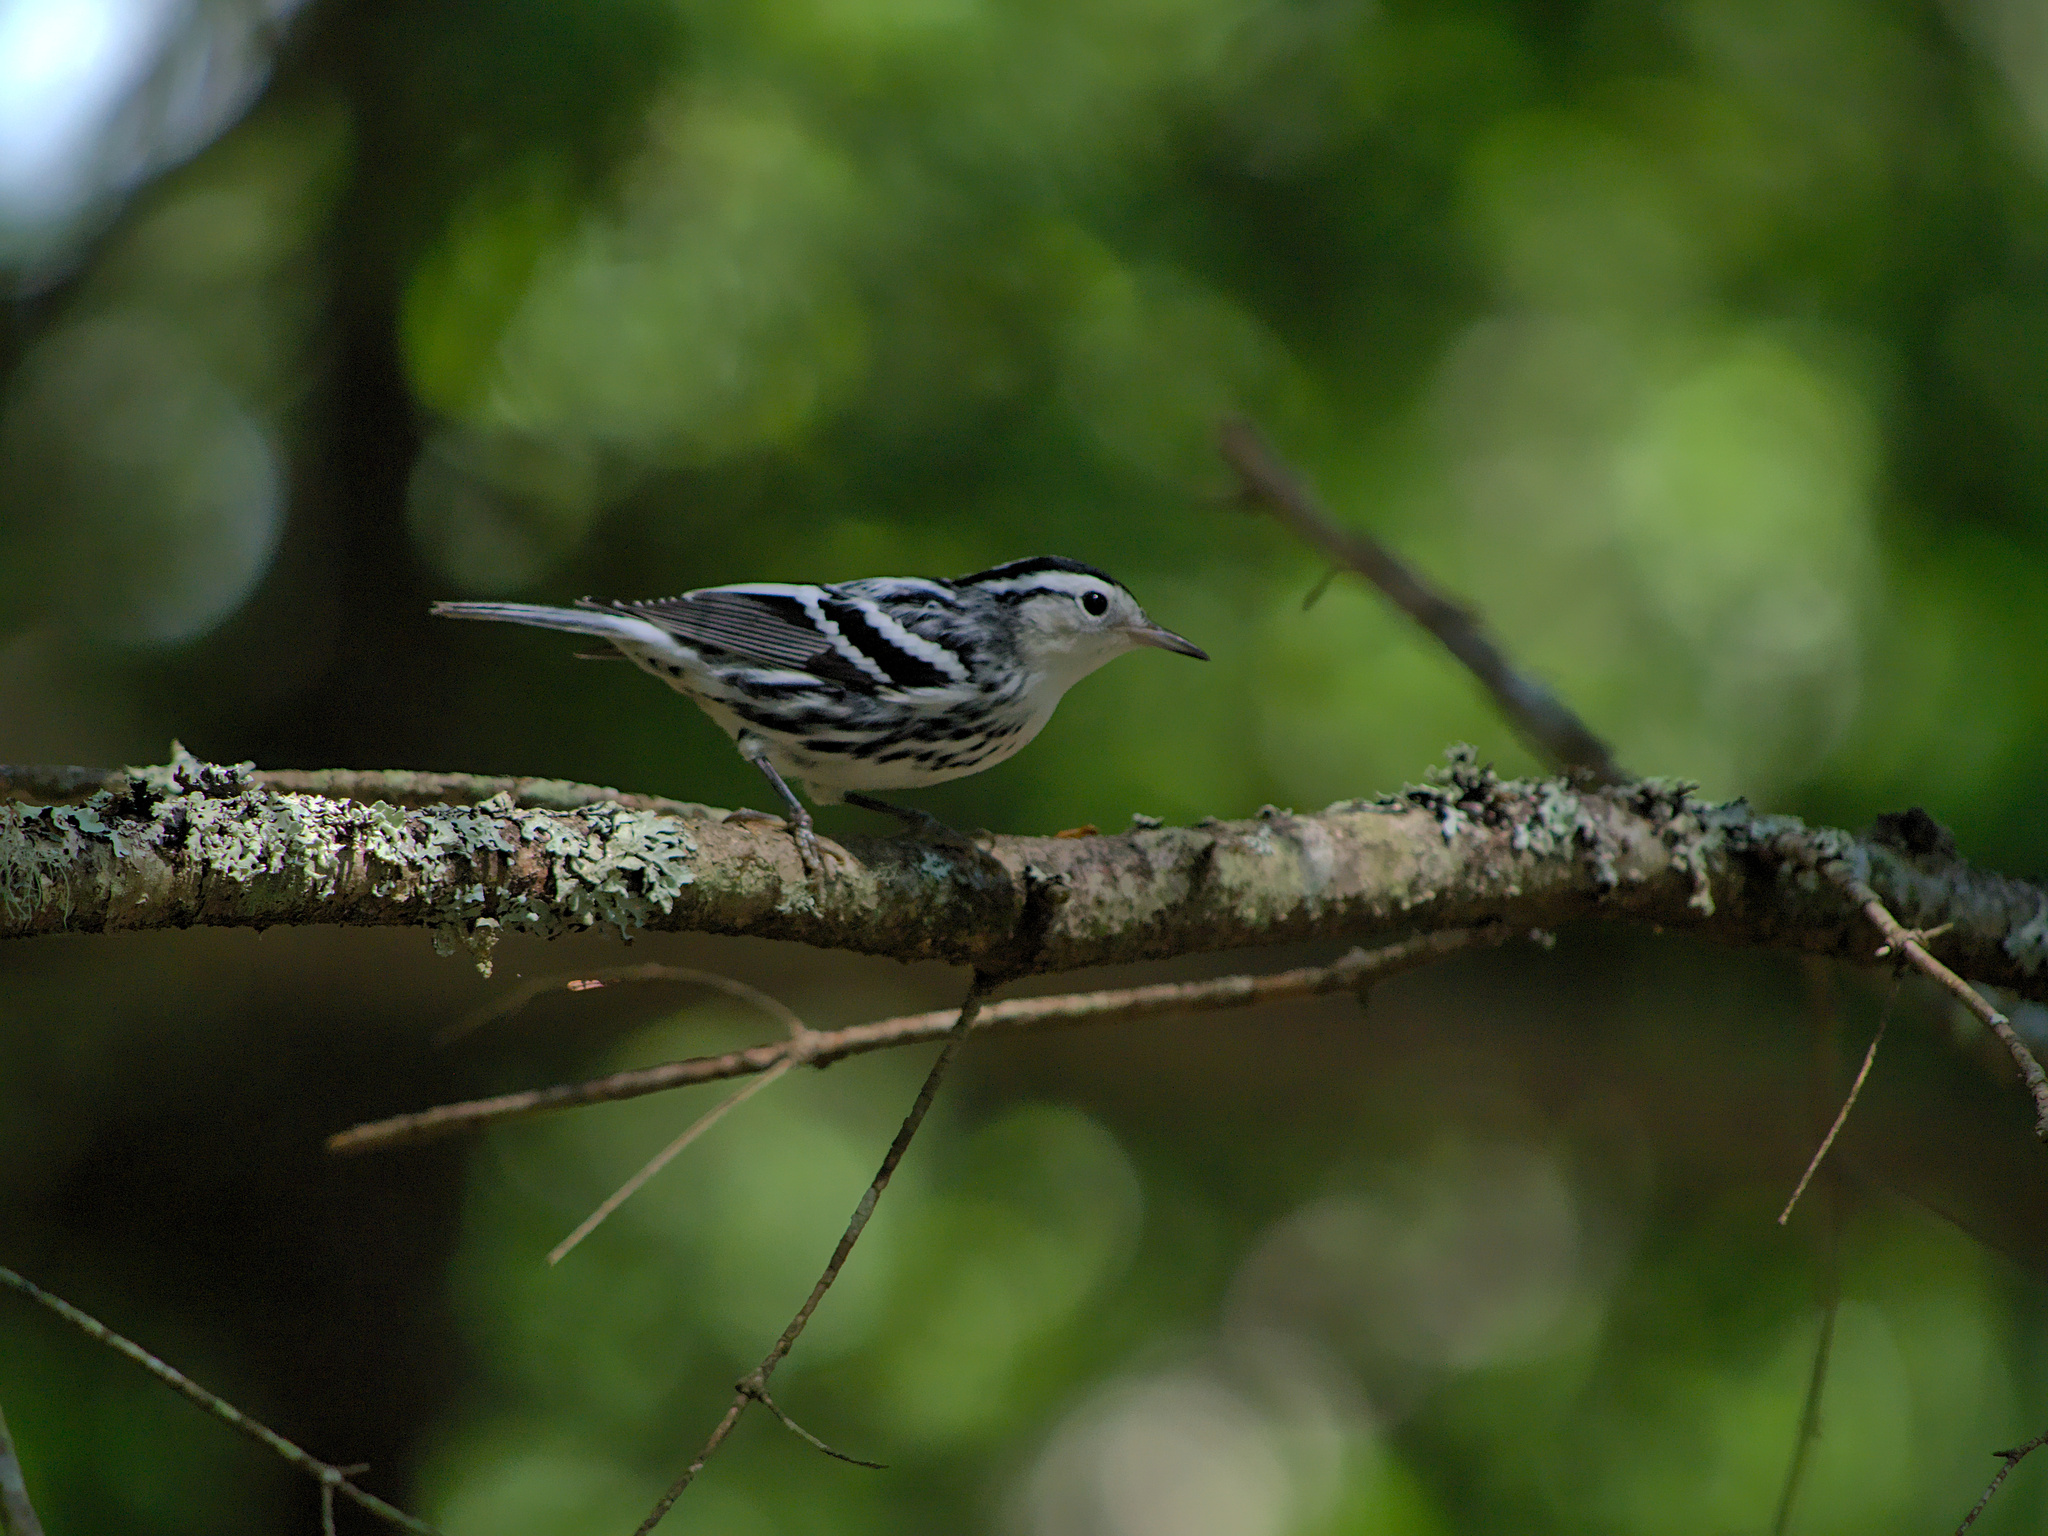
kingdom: Animalia
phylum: Chordata
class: Aves
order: Passeriformes
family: Parulidae
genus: Mniotilta
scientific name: Mniotilta varia
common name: Black-and-white warbler
